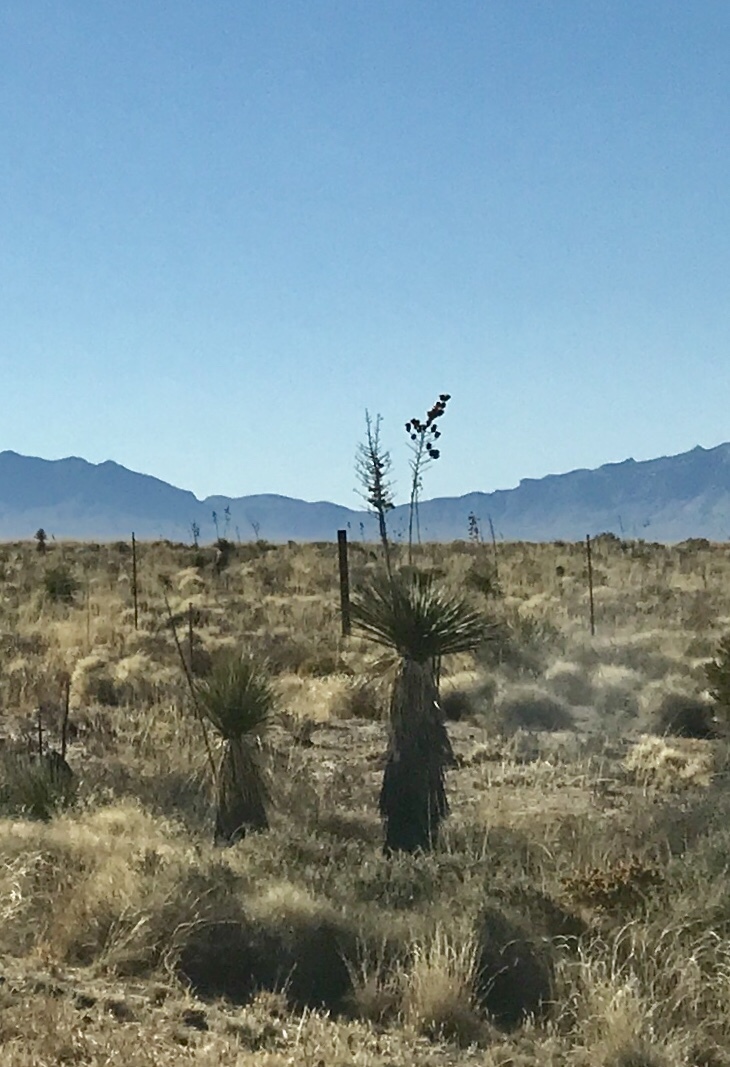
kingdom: Plantae
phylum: Tracheophyta
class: Liliopsida
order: Asparagales
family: Asparagaceae
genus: Yucca
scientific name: Yucca elata
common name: Palmella
